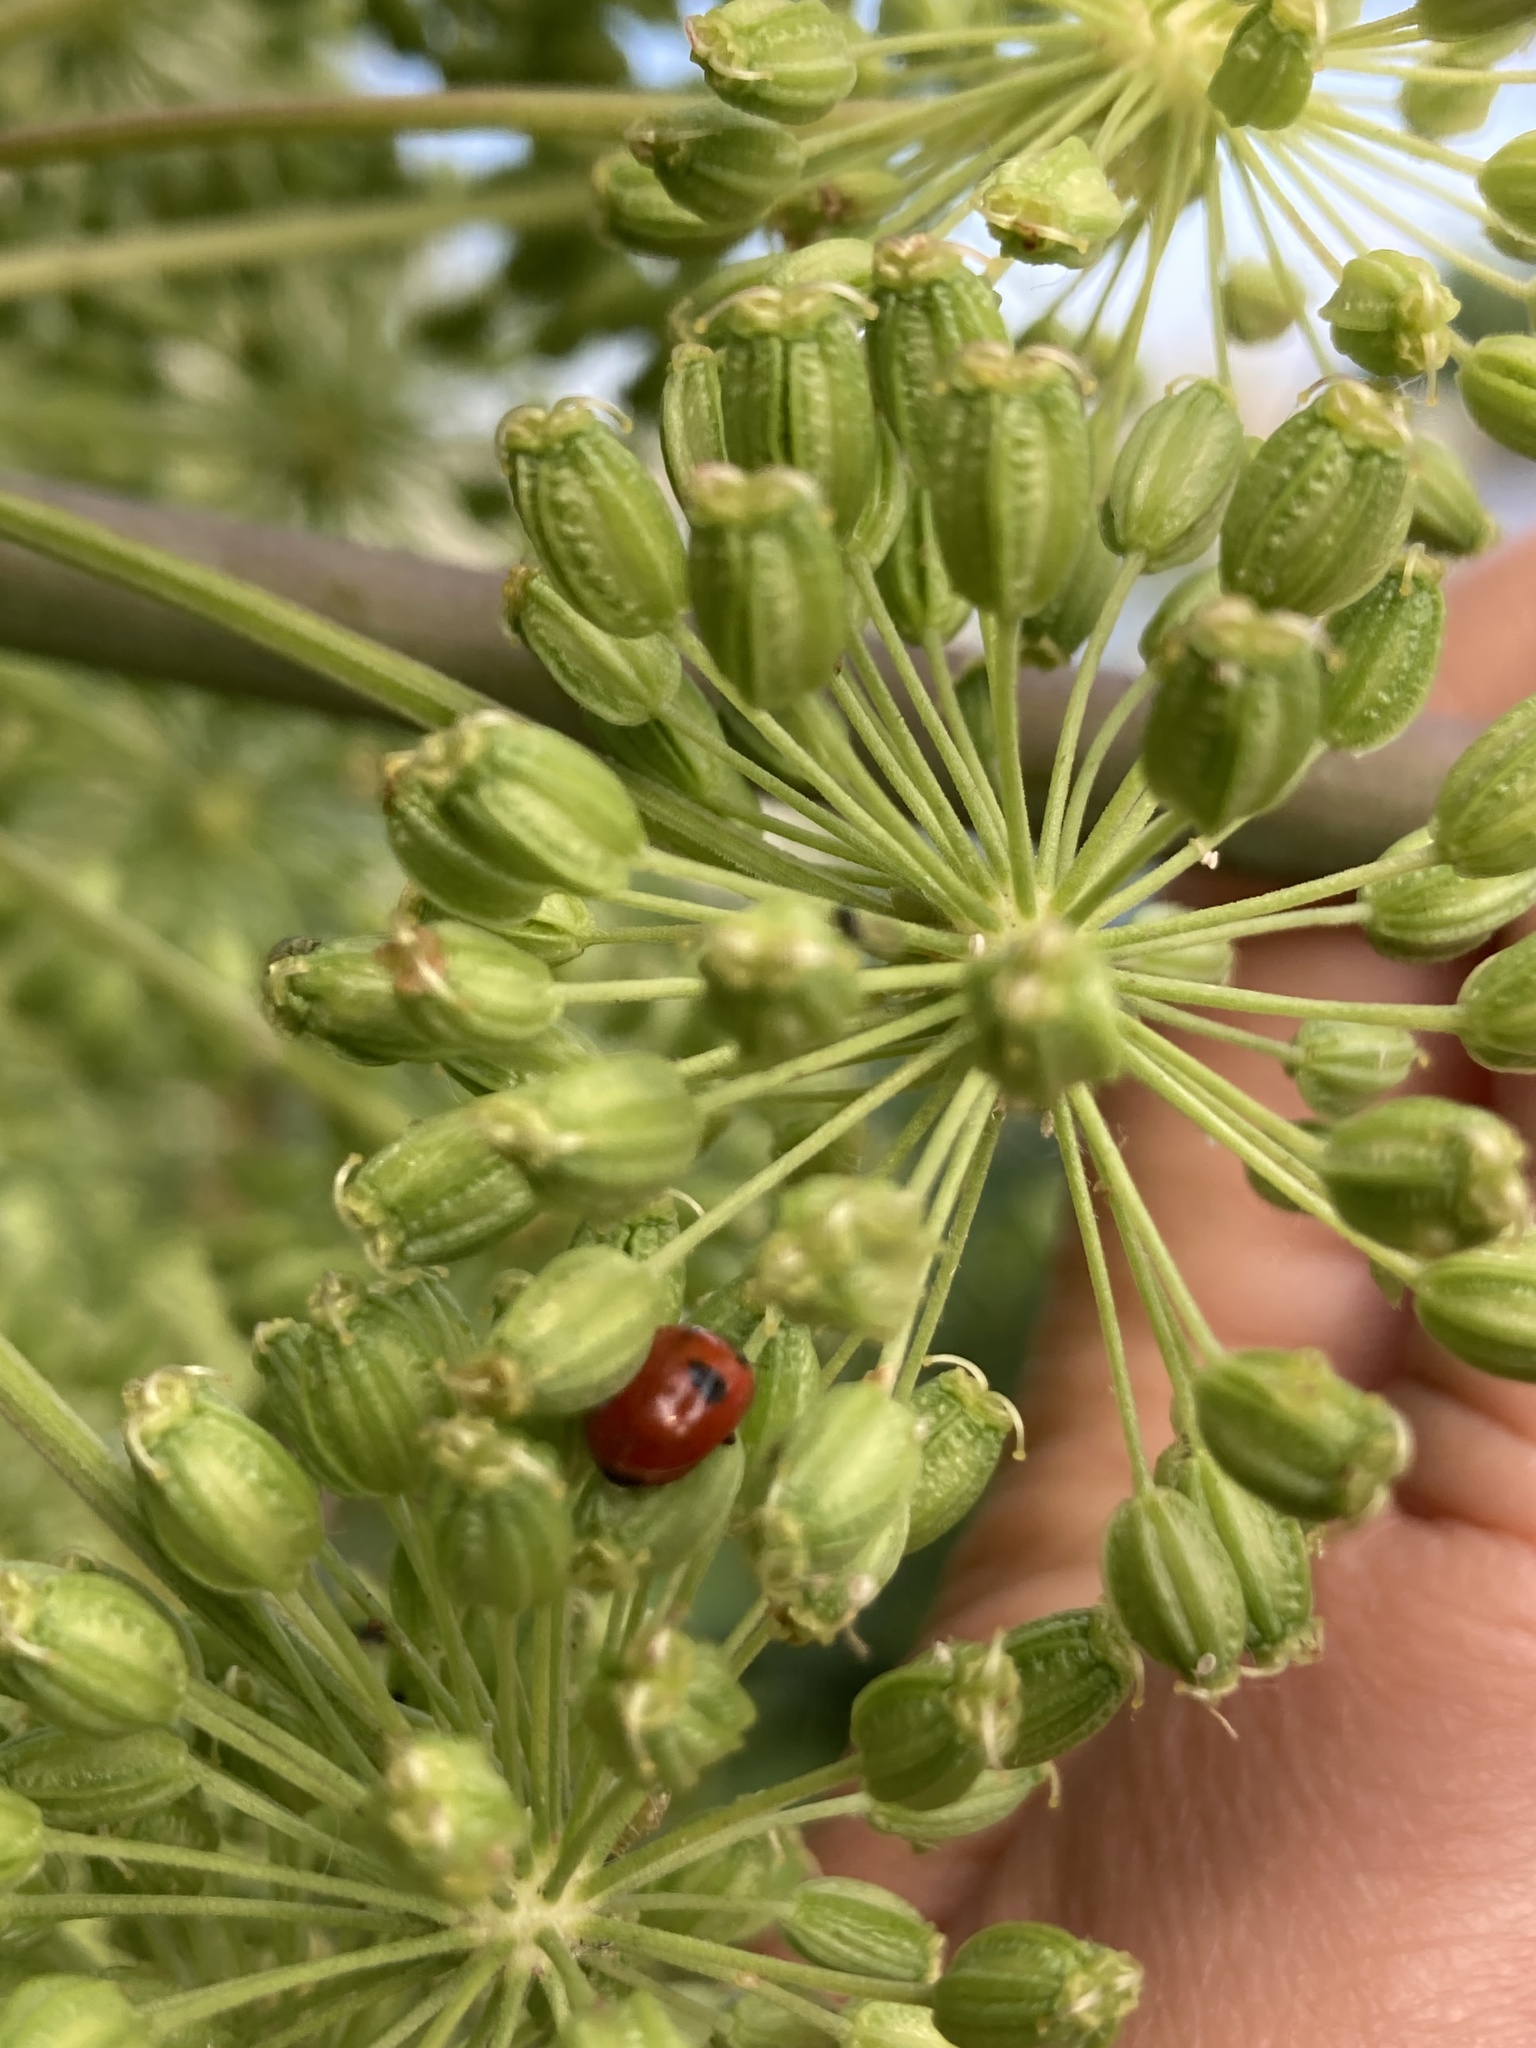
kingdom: Animalia
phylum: Arthropoda
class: Insecta
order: Coleoptera
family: Coccinellidae
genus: Adalia
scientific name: Adalia bipunctata
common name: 2-spot ladybird
